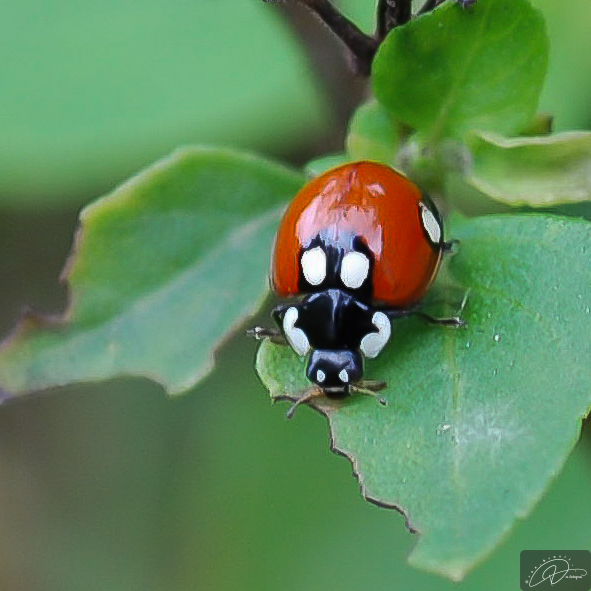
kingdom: Animalia
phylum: Arthropoda
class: Insecta
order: Coleoptera
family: Coccinellidae
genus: Cycloneda
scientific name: Cycloneda
